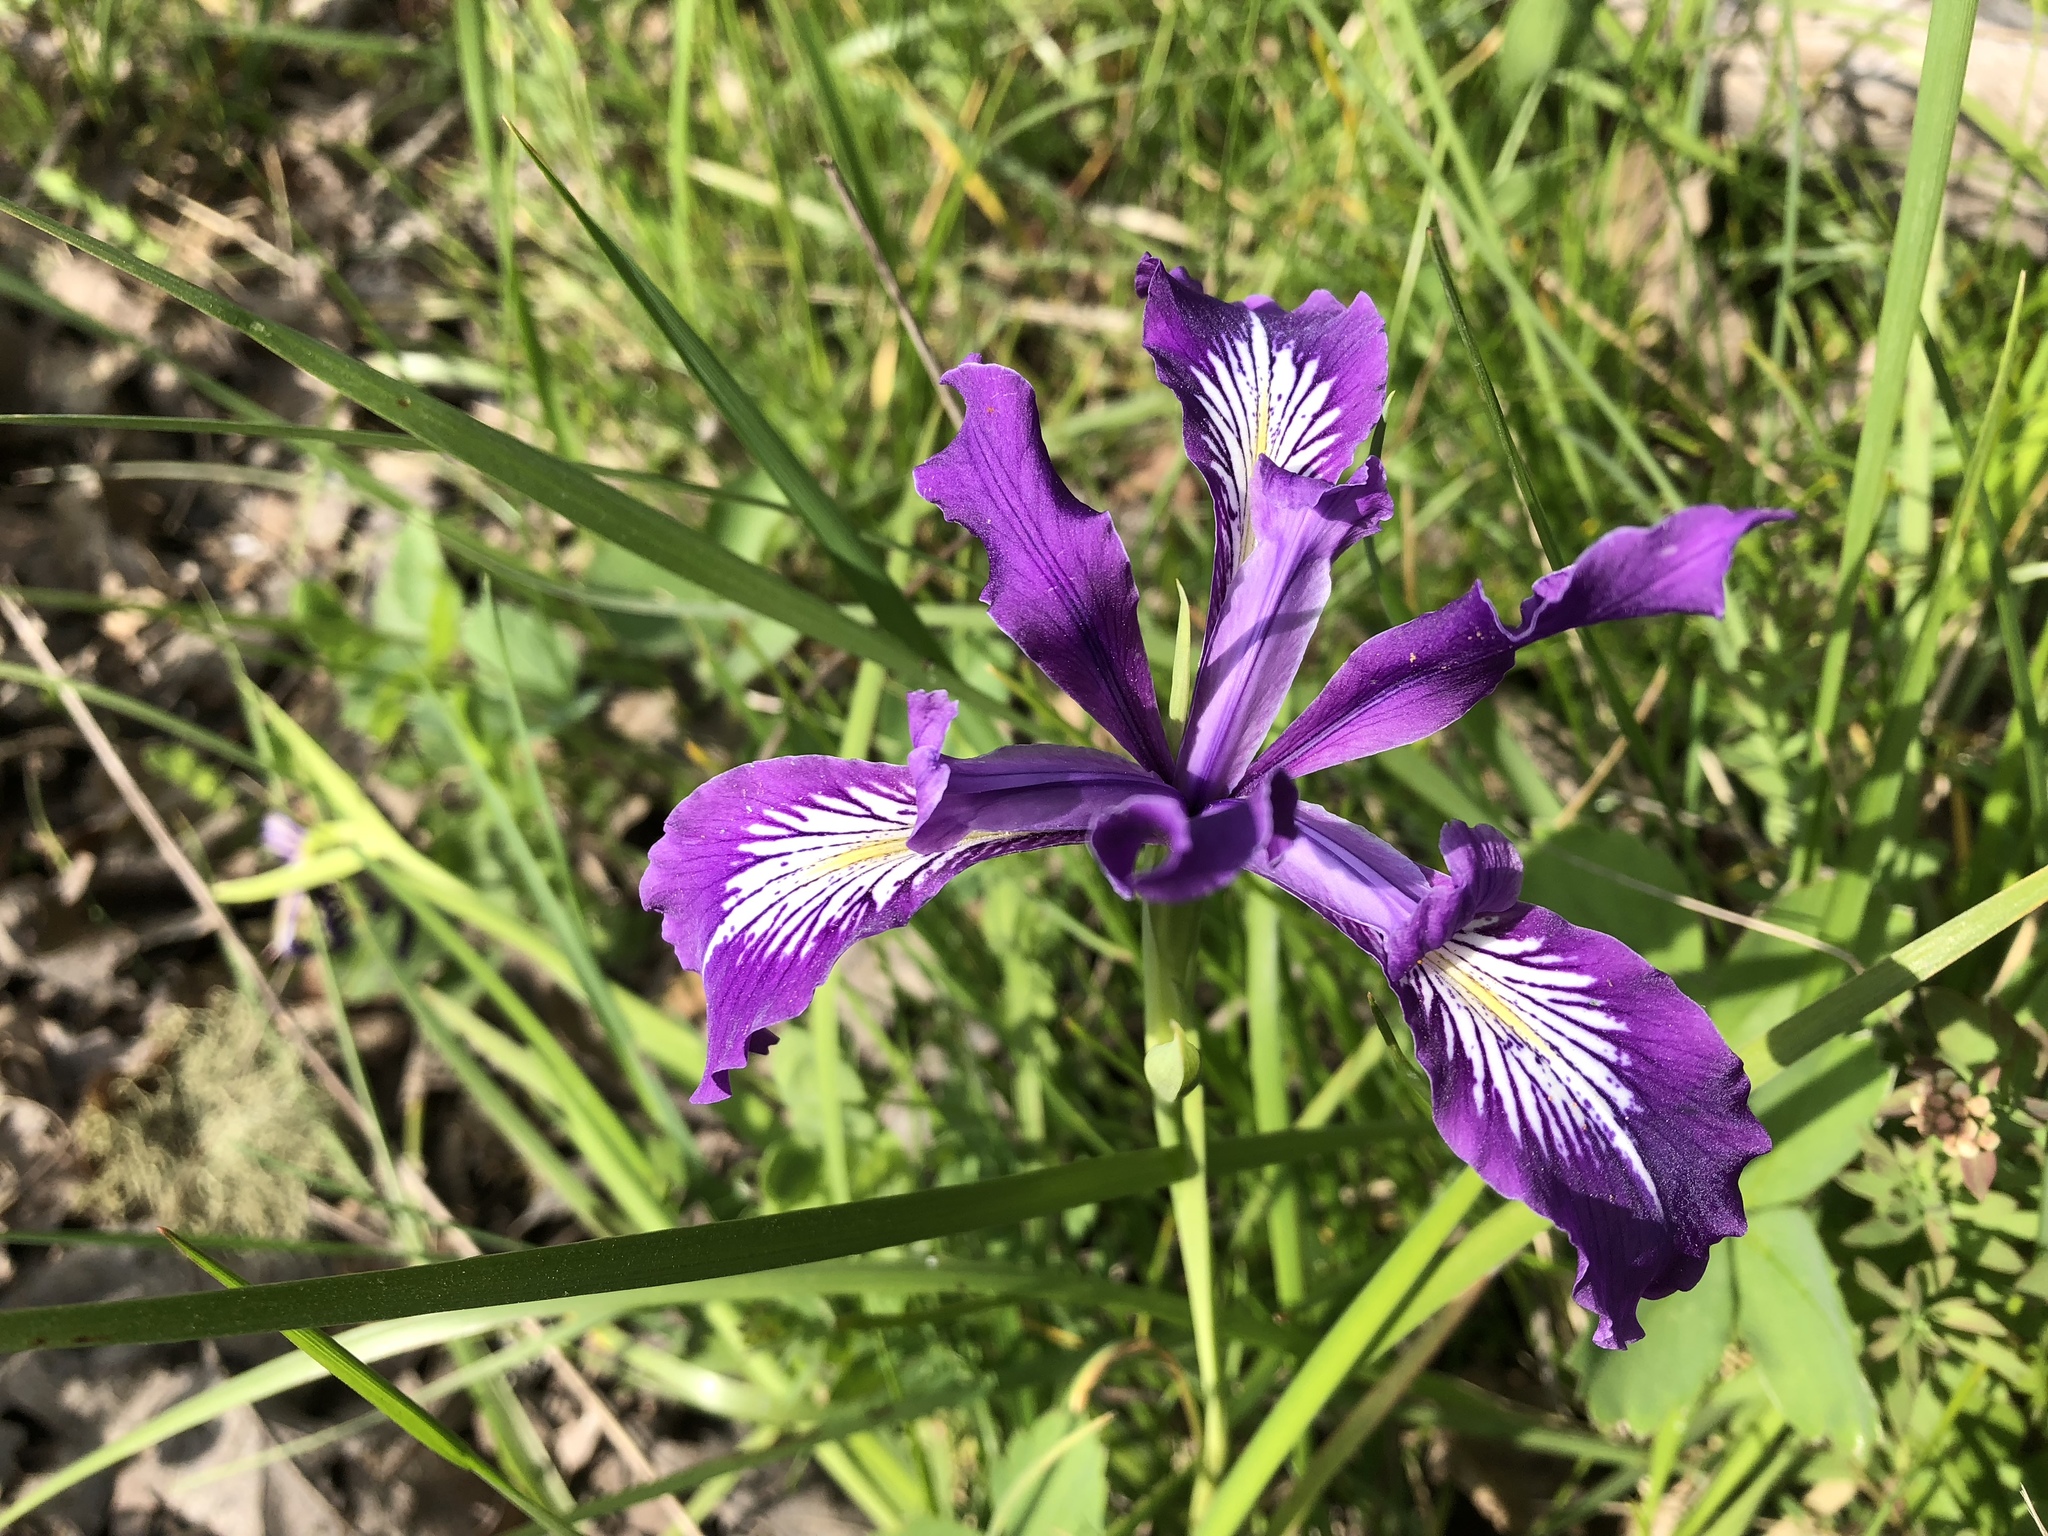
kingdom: Plantae
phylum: Tracheophyta
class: Liliopsida
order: Asparagales
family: Iridaceae
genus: Iris
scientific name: Iris tenax
